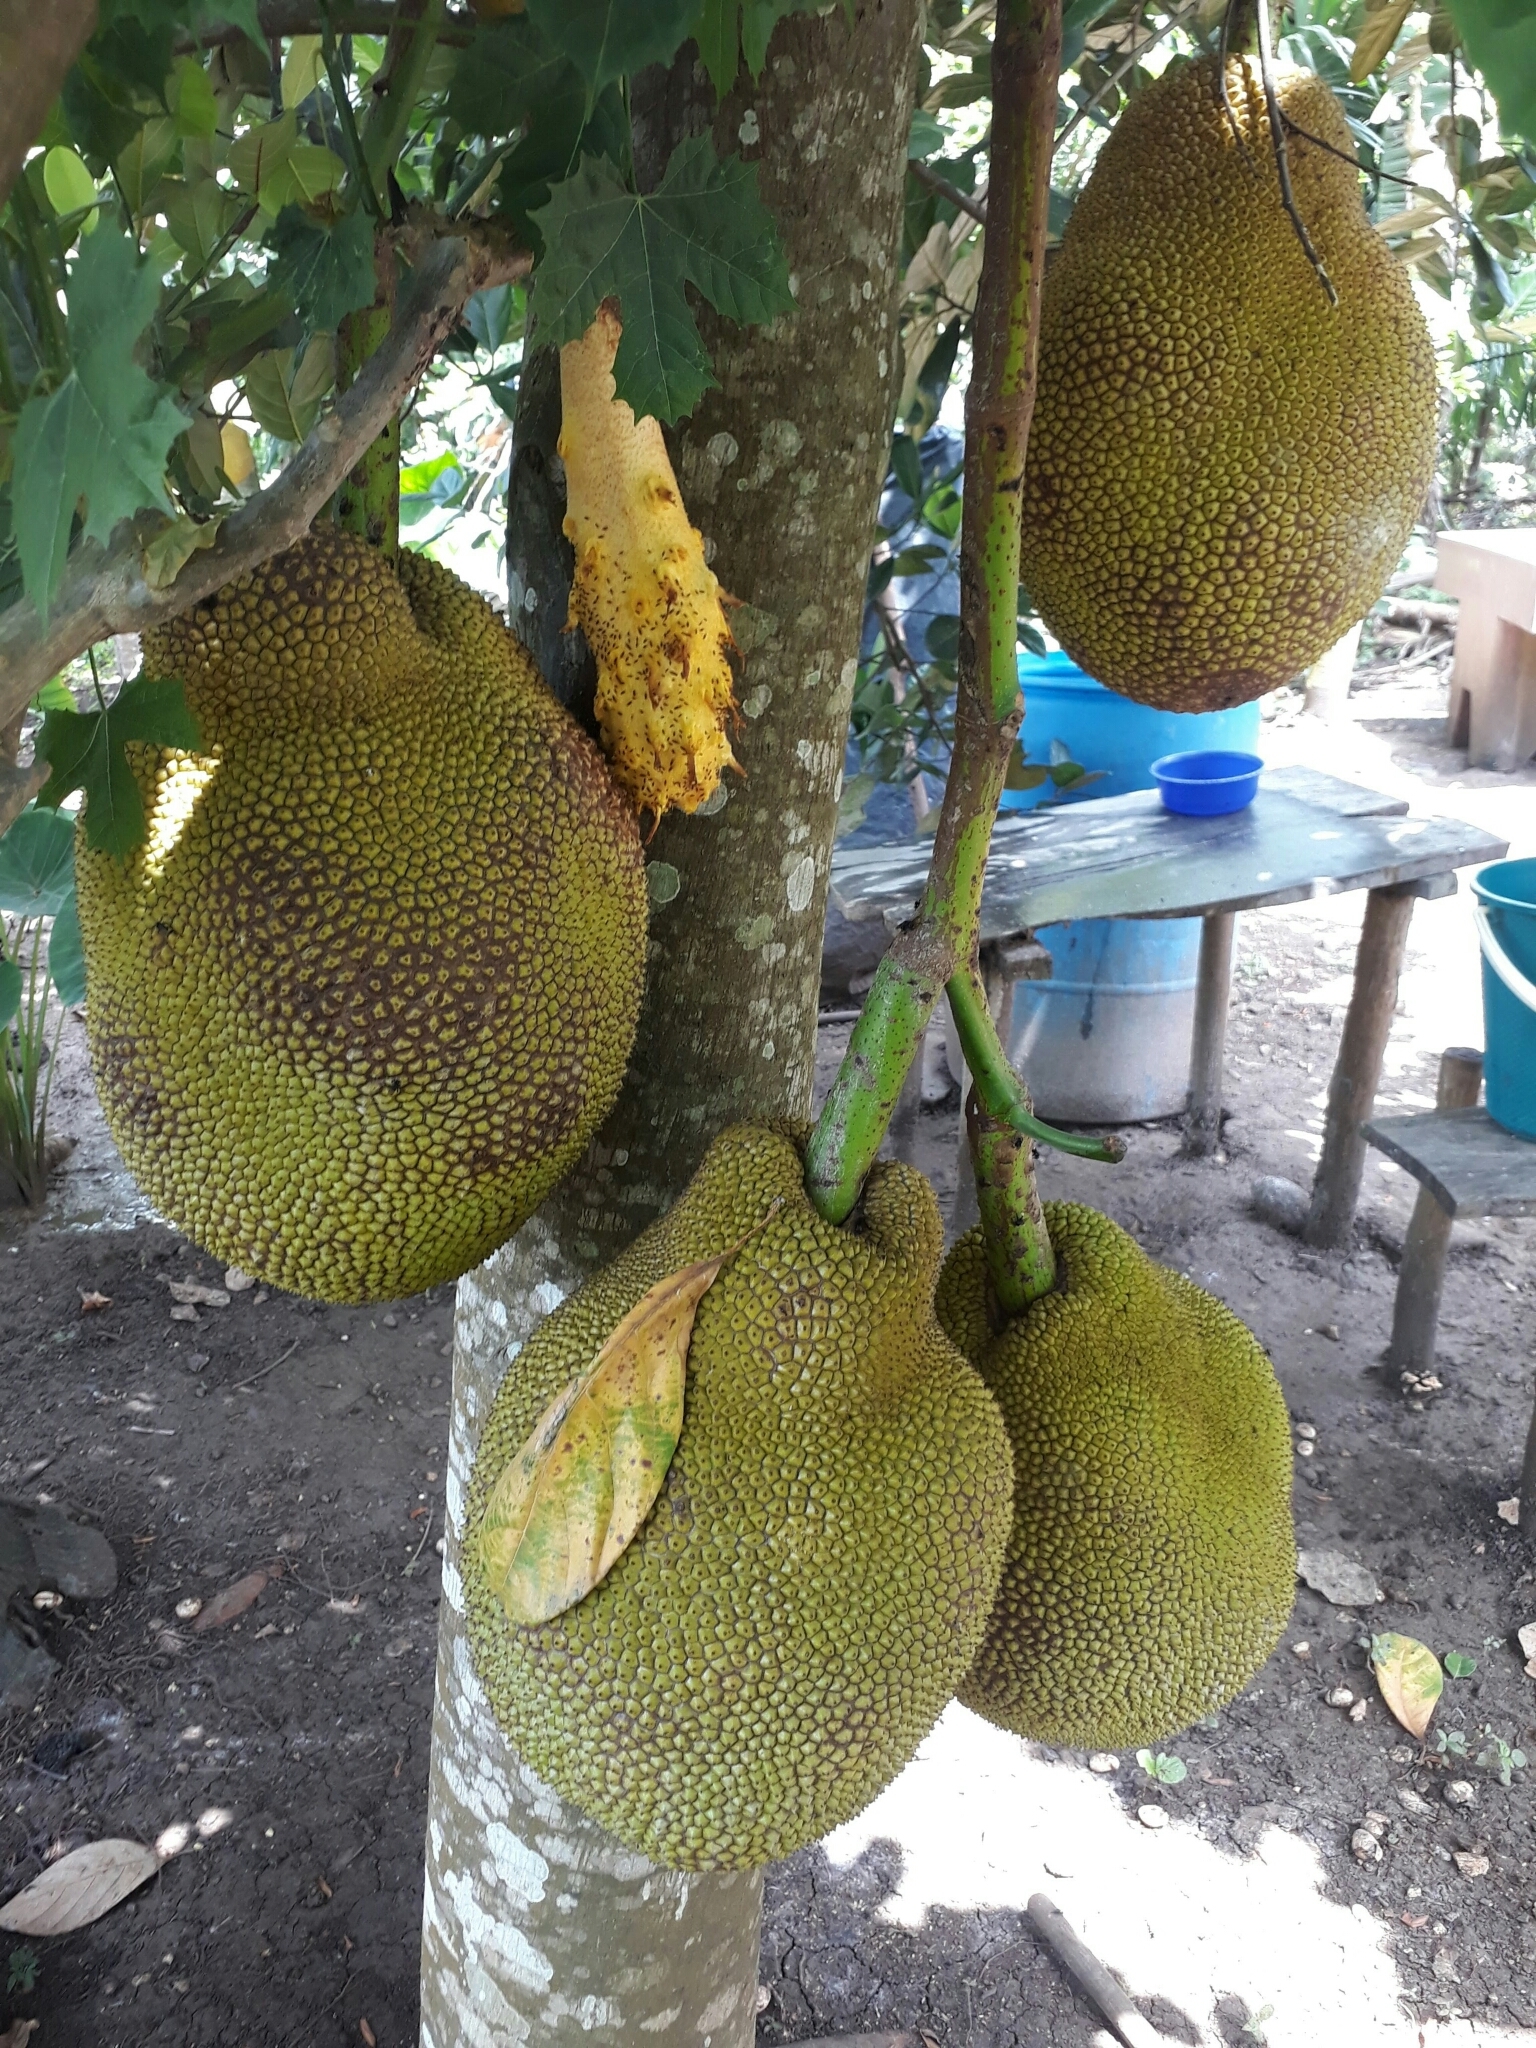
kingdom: Plantae
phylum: Tracheophyta
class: Magnoliopsida
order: Rosales
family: Moraceae
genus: Artocarpus
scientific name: Artocarpus heterophyllus
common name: Jackfruit
